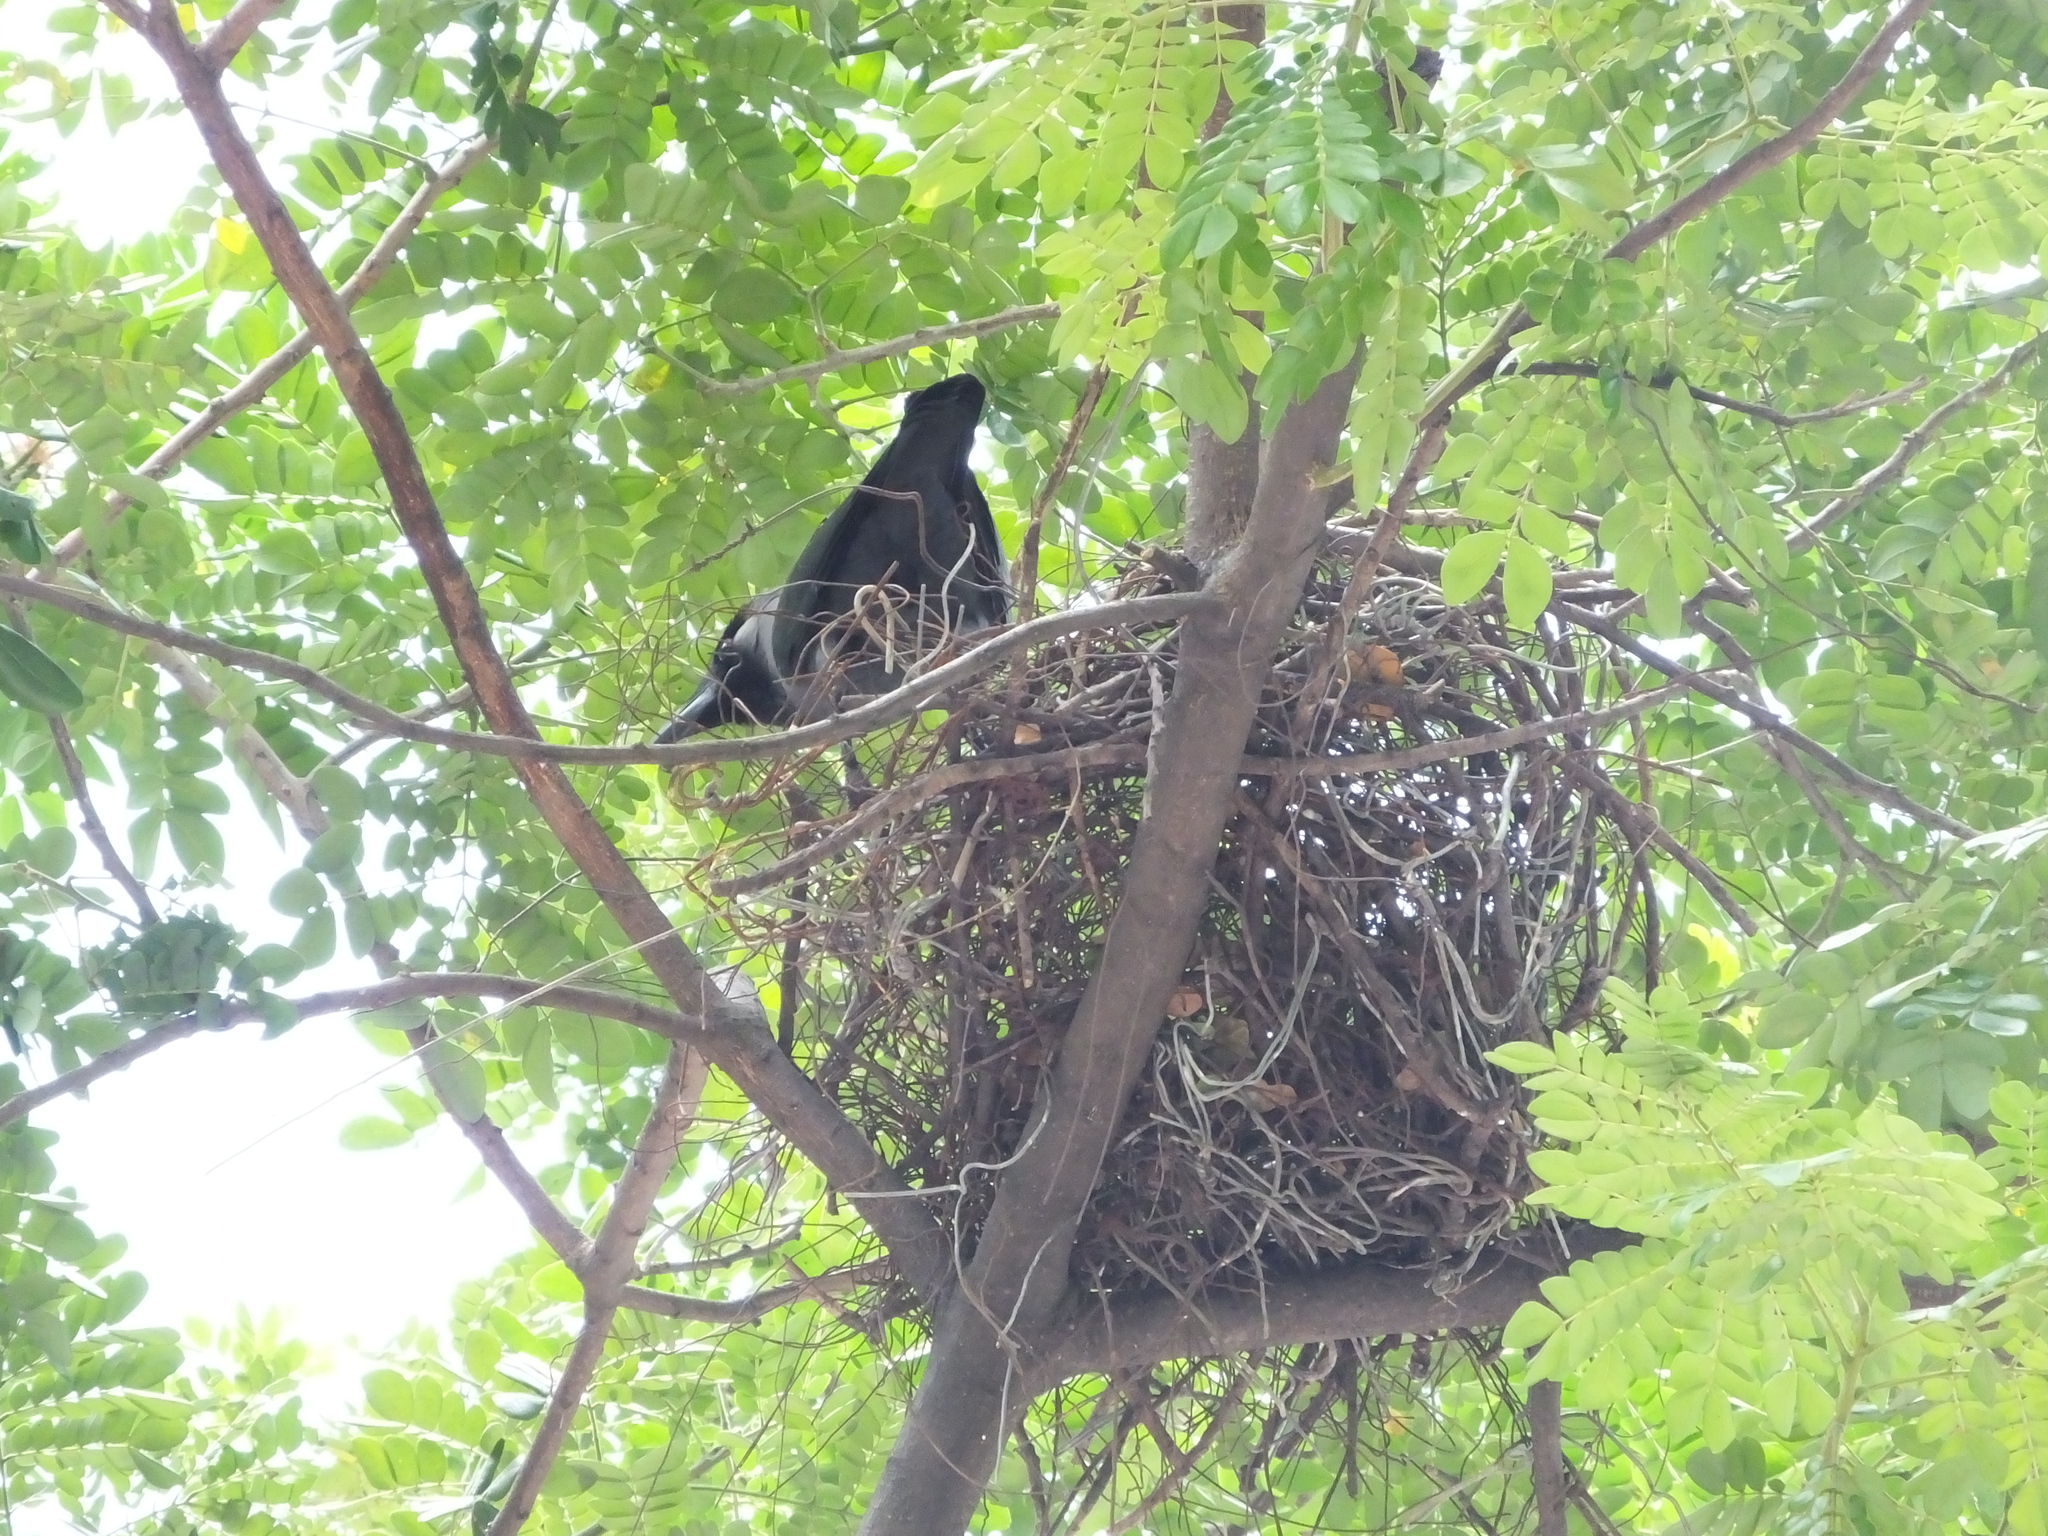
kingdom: Animalia
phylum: Chordata
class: Aves
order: Passeriformes
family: Corvidae
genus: Corvus
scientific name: Corvus splendens
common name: House crow
